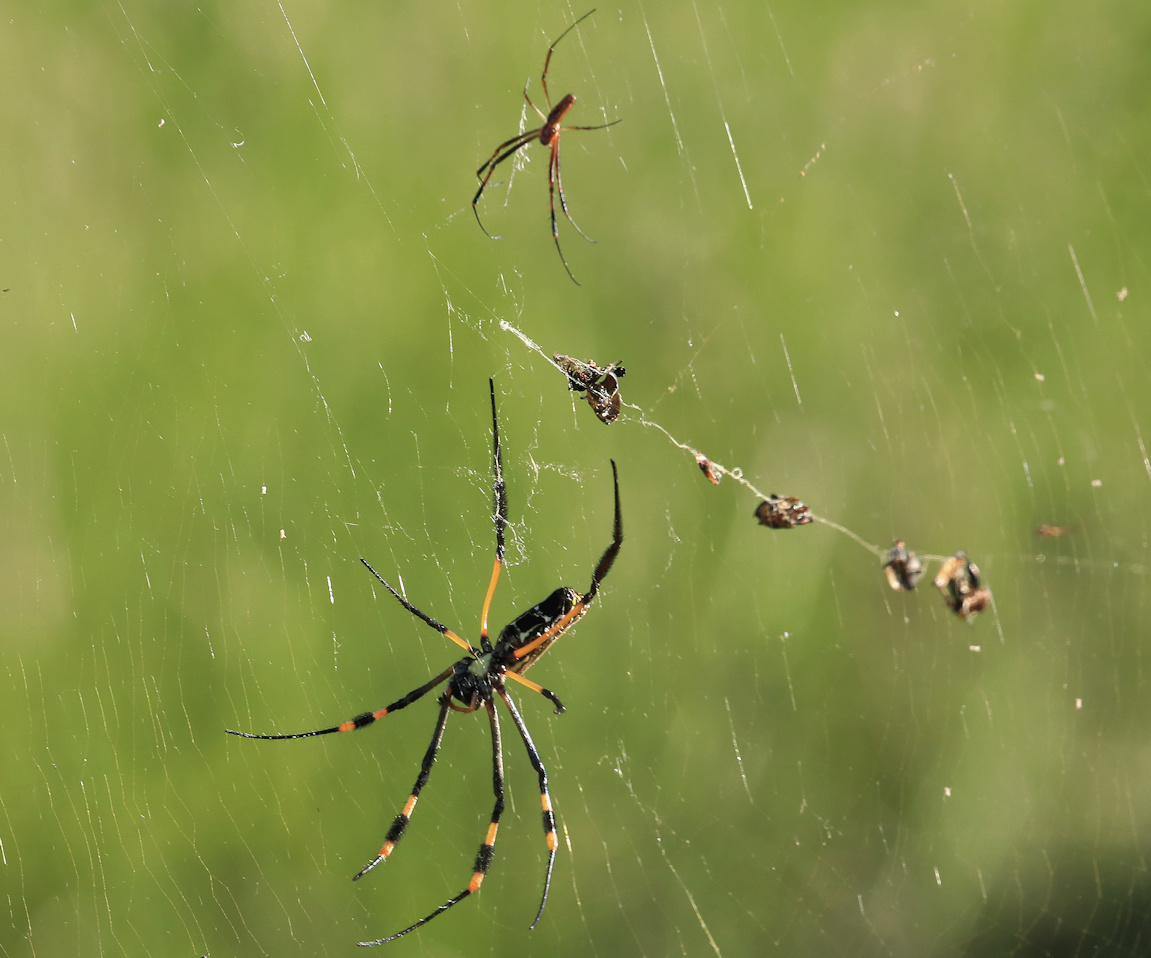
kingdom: Animalia
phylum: Arthropoda
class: Arachnida
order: Araneae
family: Araneidae
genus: Trichonephila
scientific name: Trichonephila senegalensis
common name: Banded golden orb weaver
